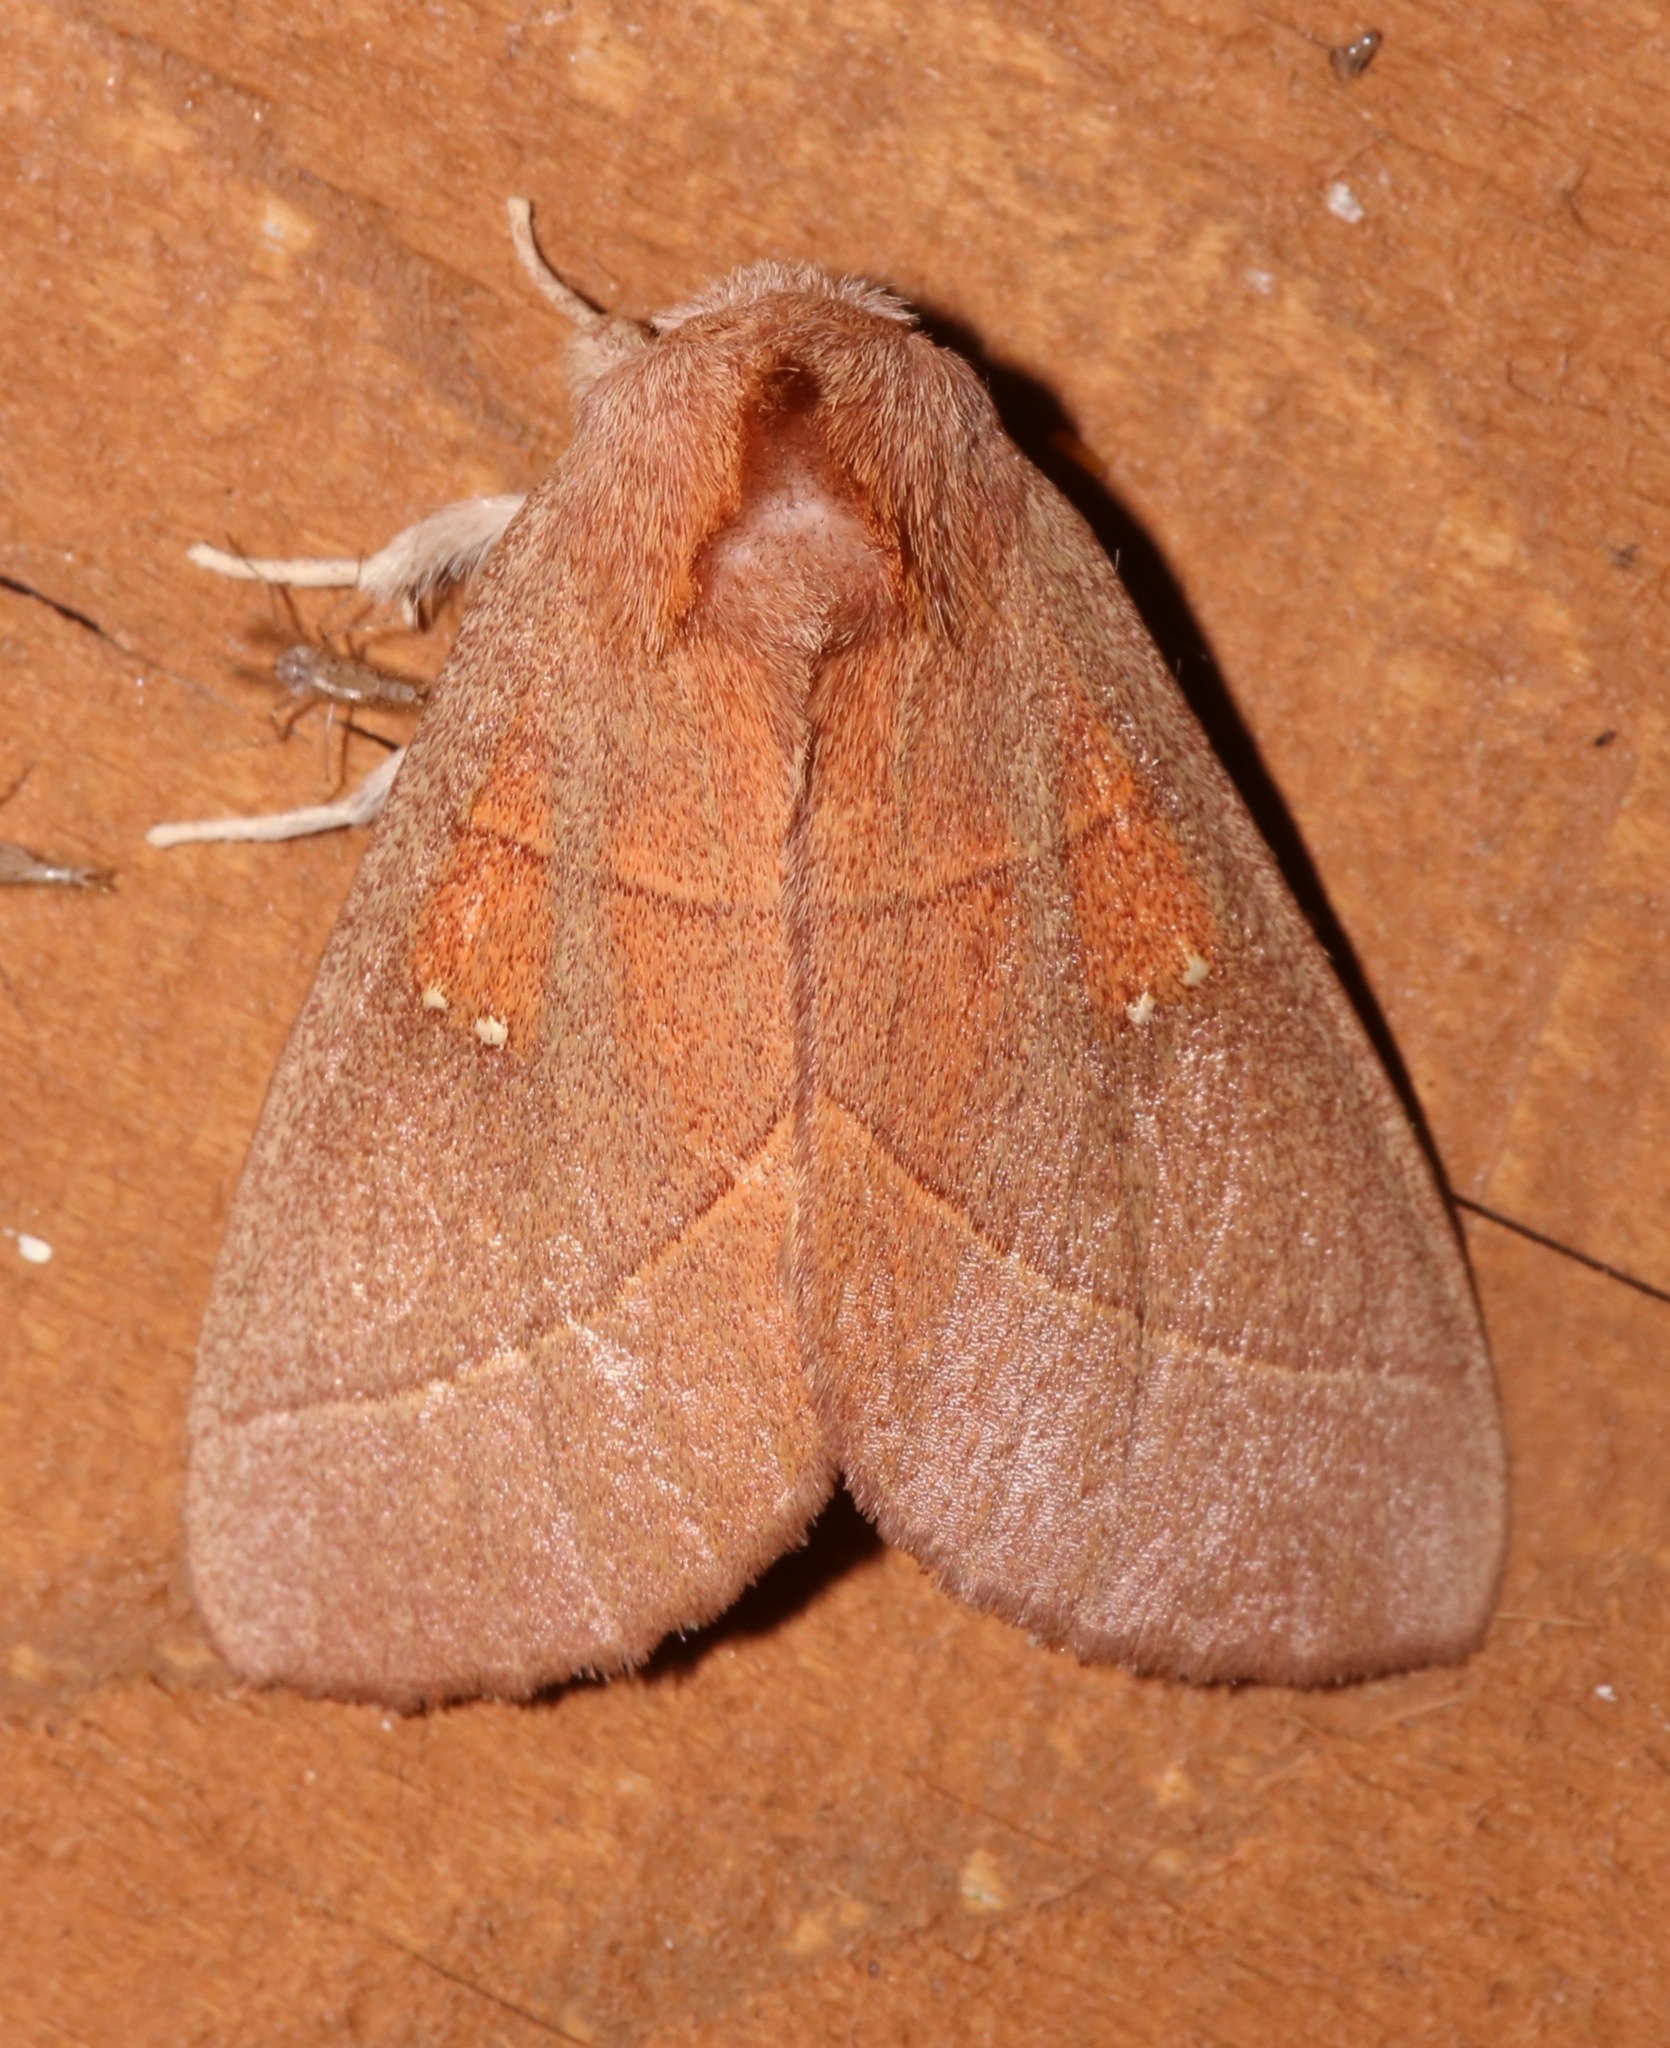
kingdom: Animalia
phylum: Arthropoda
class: Insecta
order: Lepidoptera
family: Notodontidae
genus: Nadata
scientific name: Nadata gibbosa
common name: White-dotted prominent
